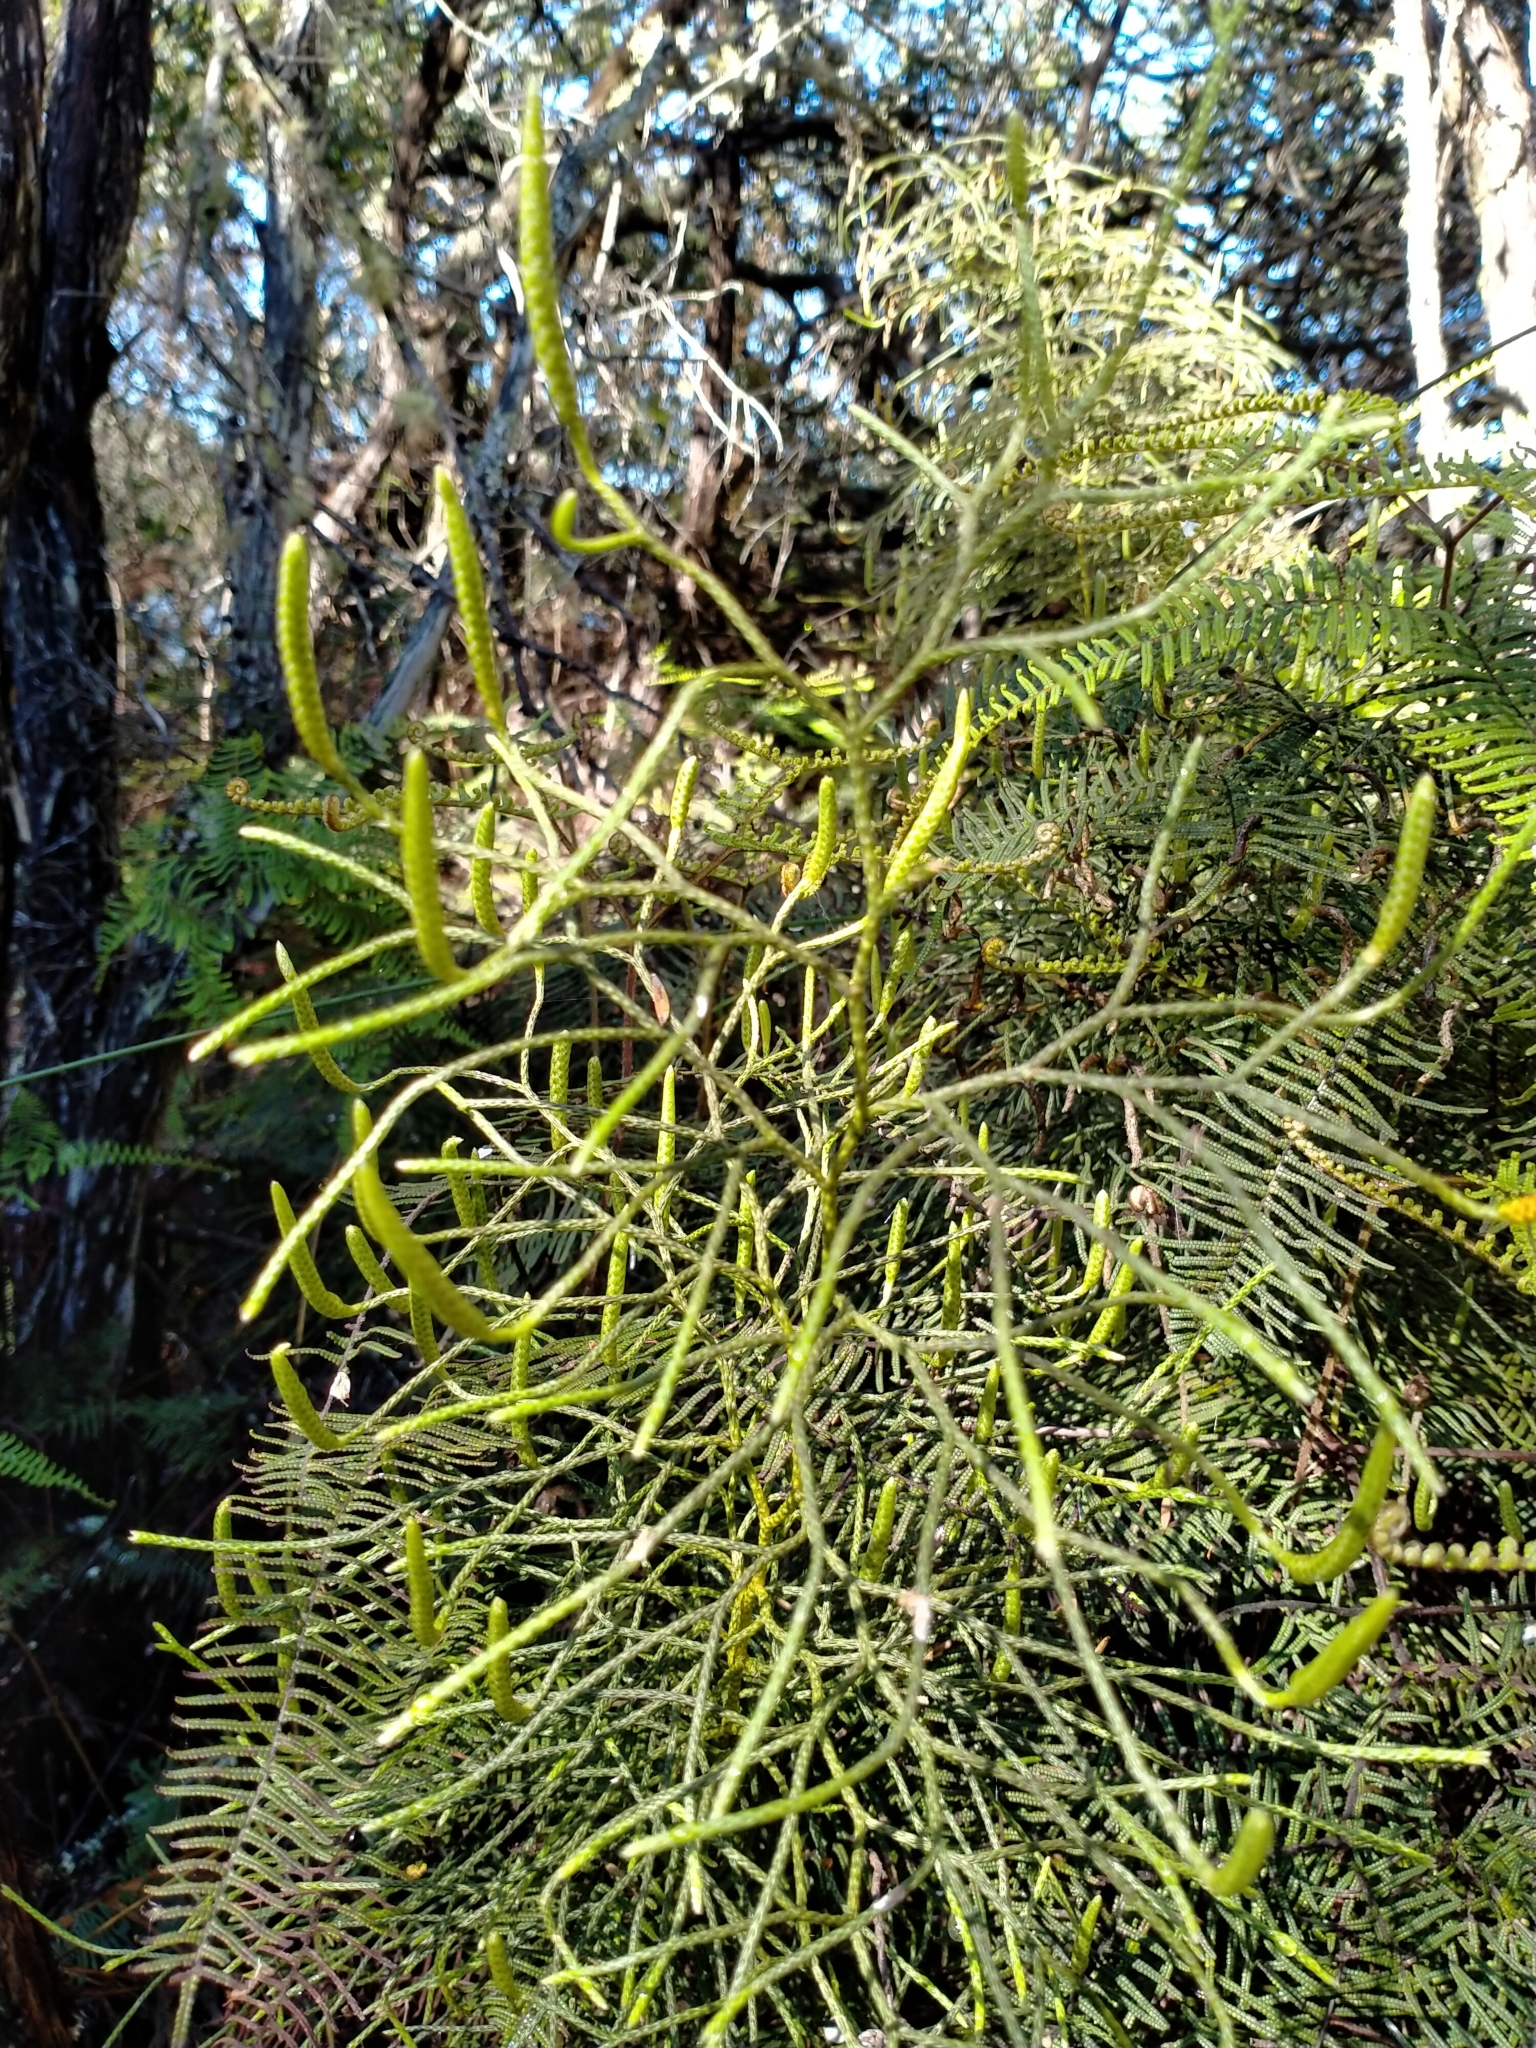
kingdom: Plantae
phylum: Tracheophyta
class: Lycopodiopsida
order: Lycopodiales
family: Lycopodiaceae
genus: Pseudolycopodium
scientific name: Pseudolycopodium densum
